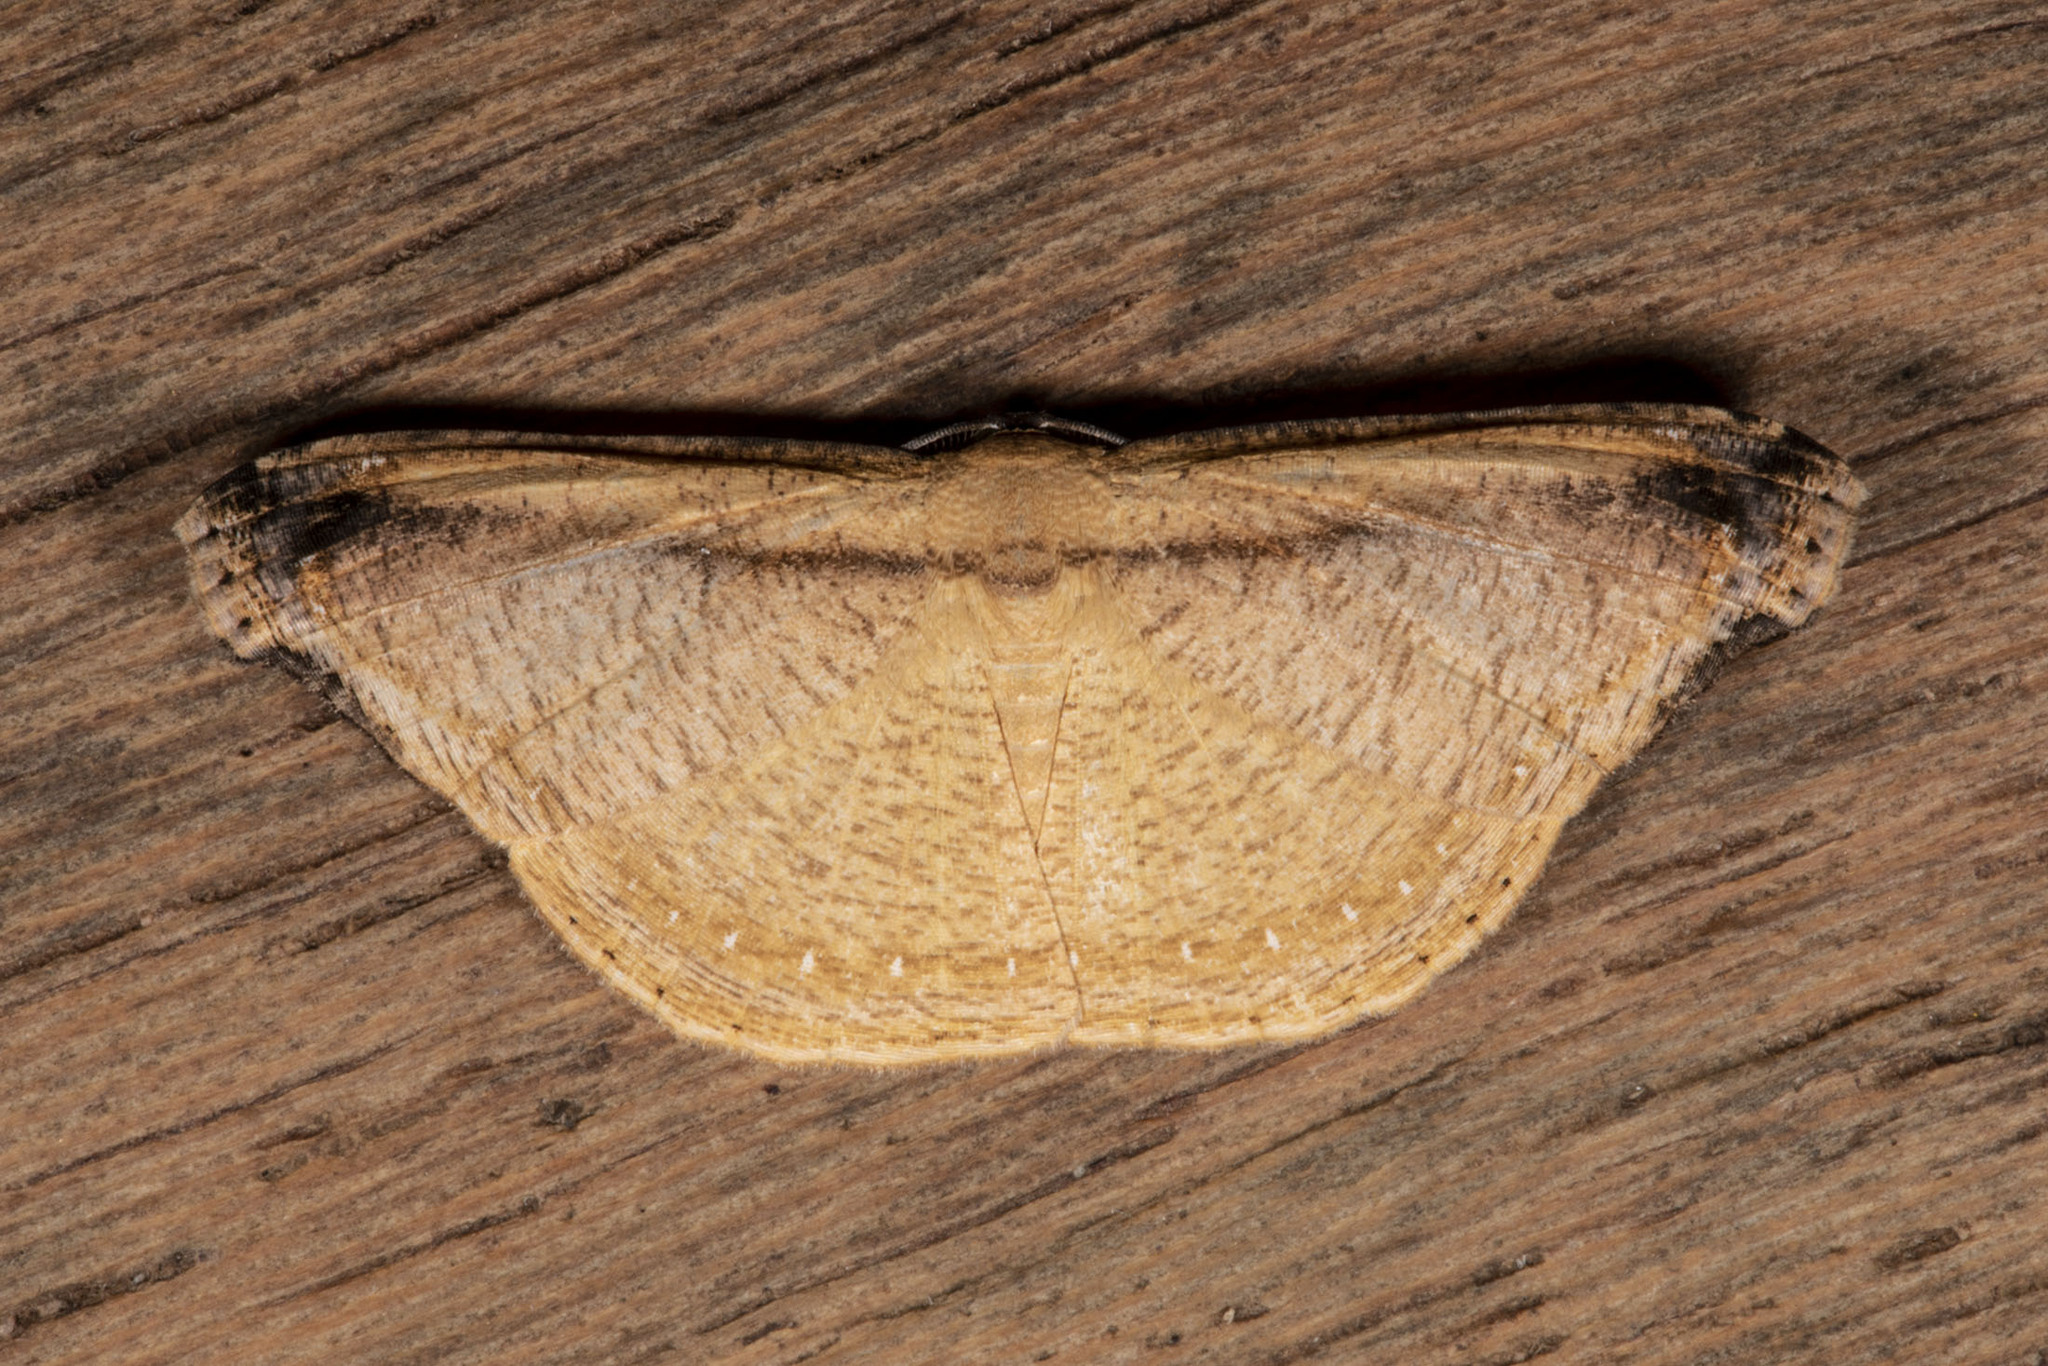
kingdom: Animalia
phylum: Arthropoda
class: Insecta
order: Lepidoptera
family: Uraniidae
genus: Molybdophora
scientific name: Molybdophora concinnularia
